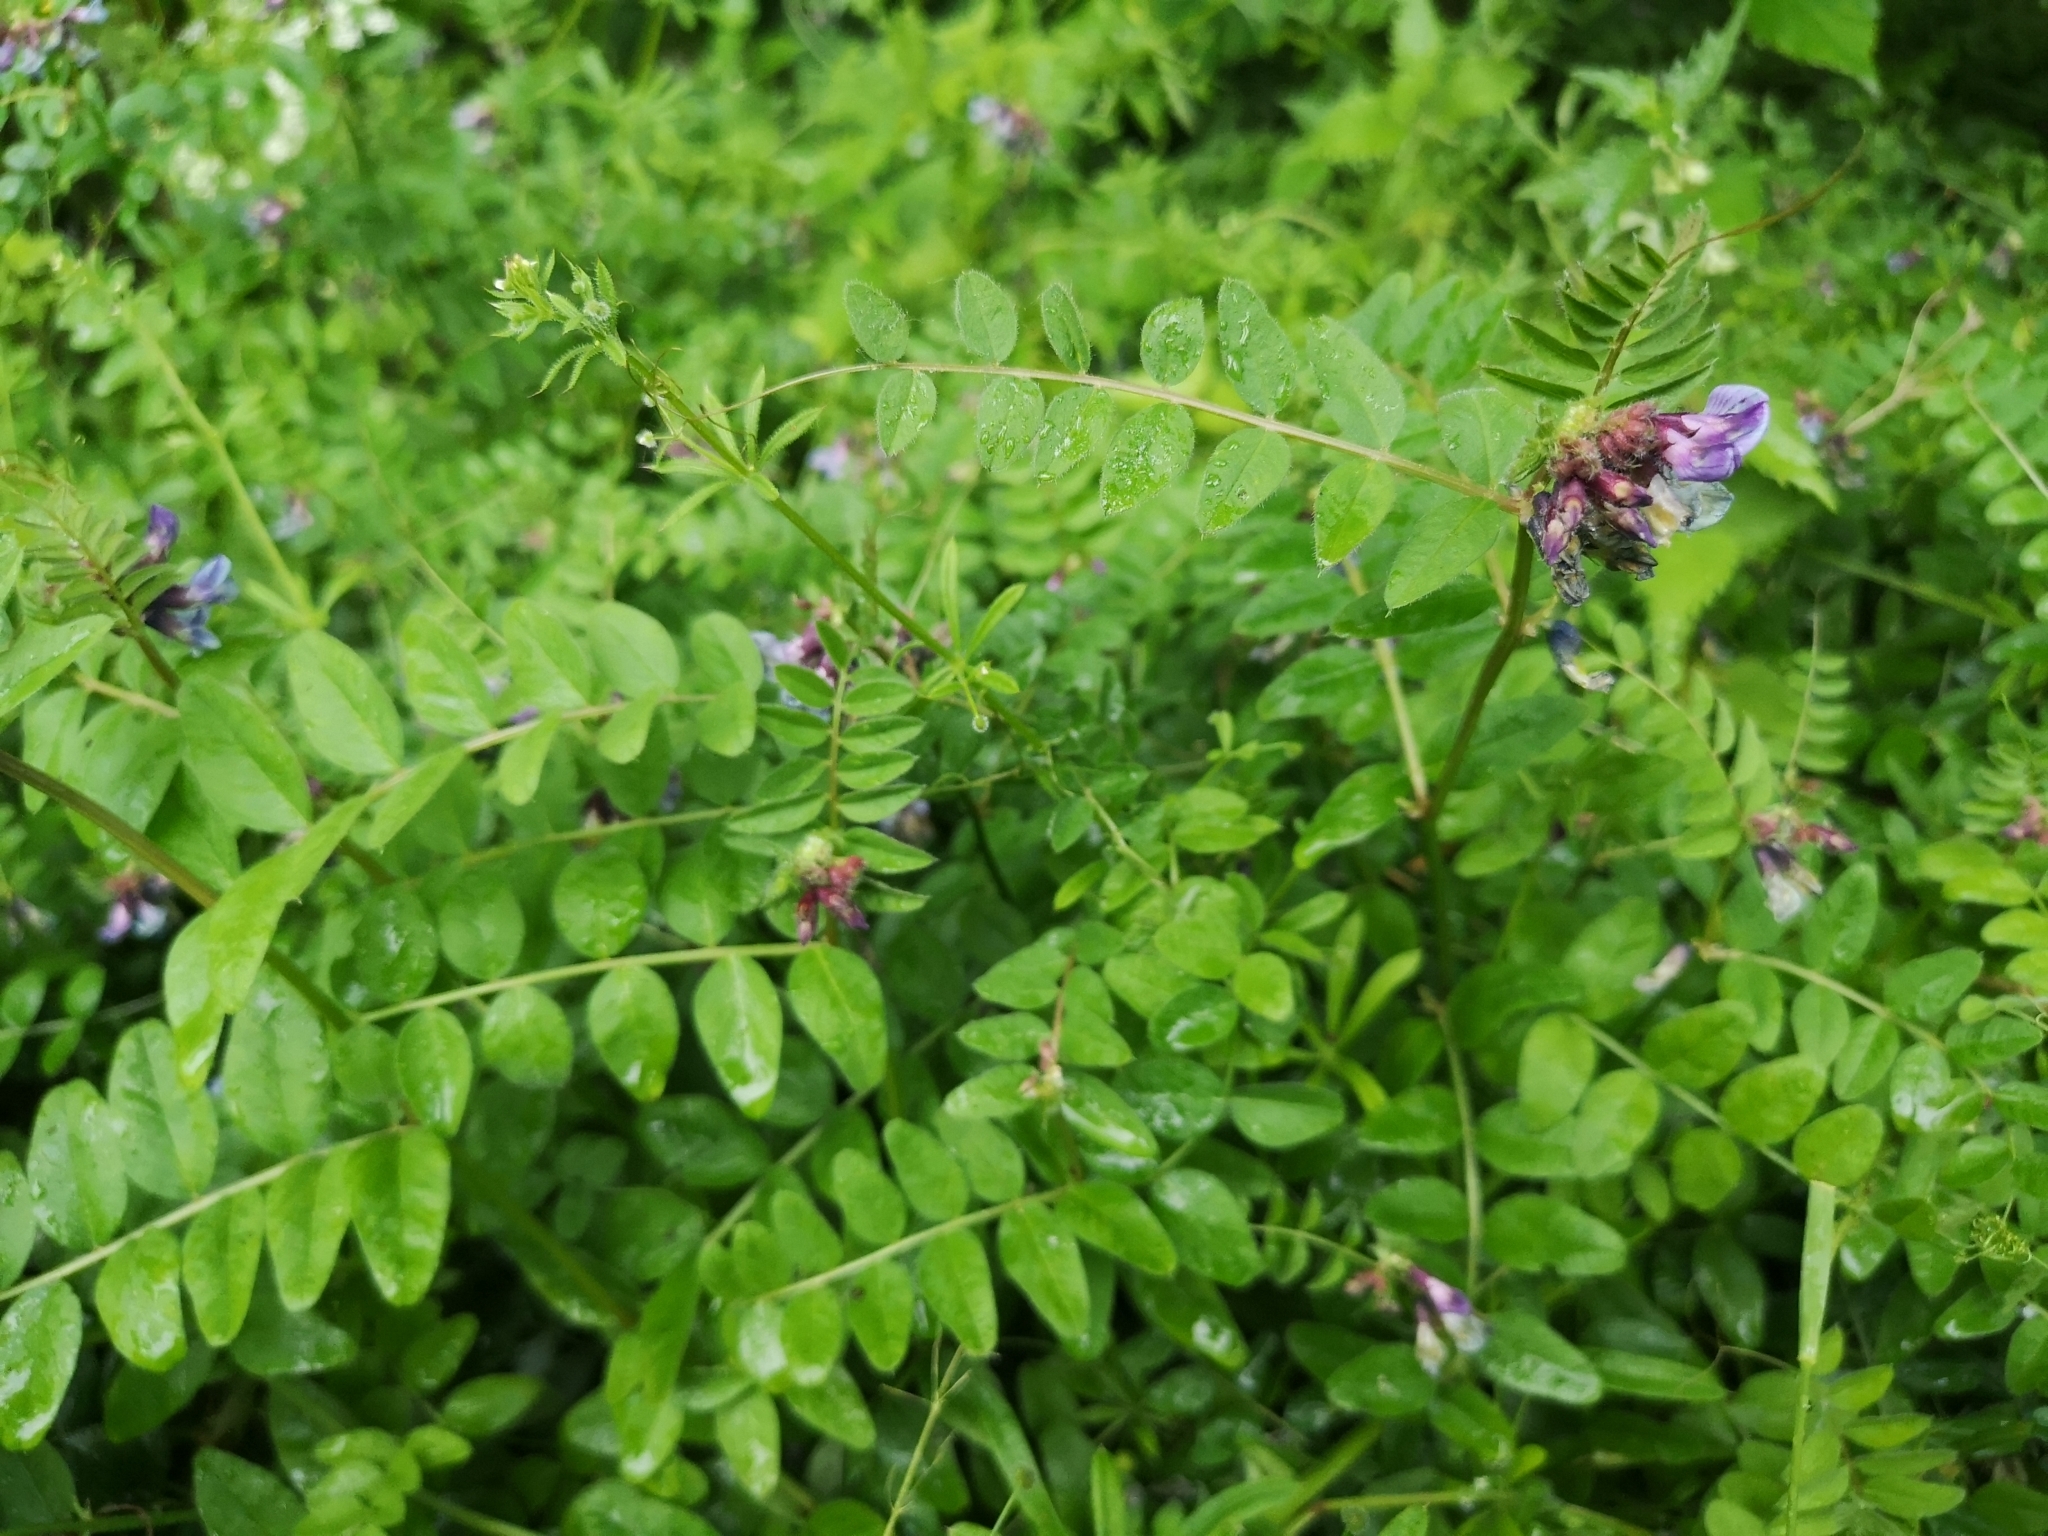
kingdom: Plantae
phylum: Tracheophyta
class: Magnoliopsida
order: Fabales
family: Fabaceae
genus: Vicia
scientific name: Vicia sepium
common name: Bush vetch
